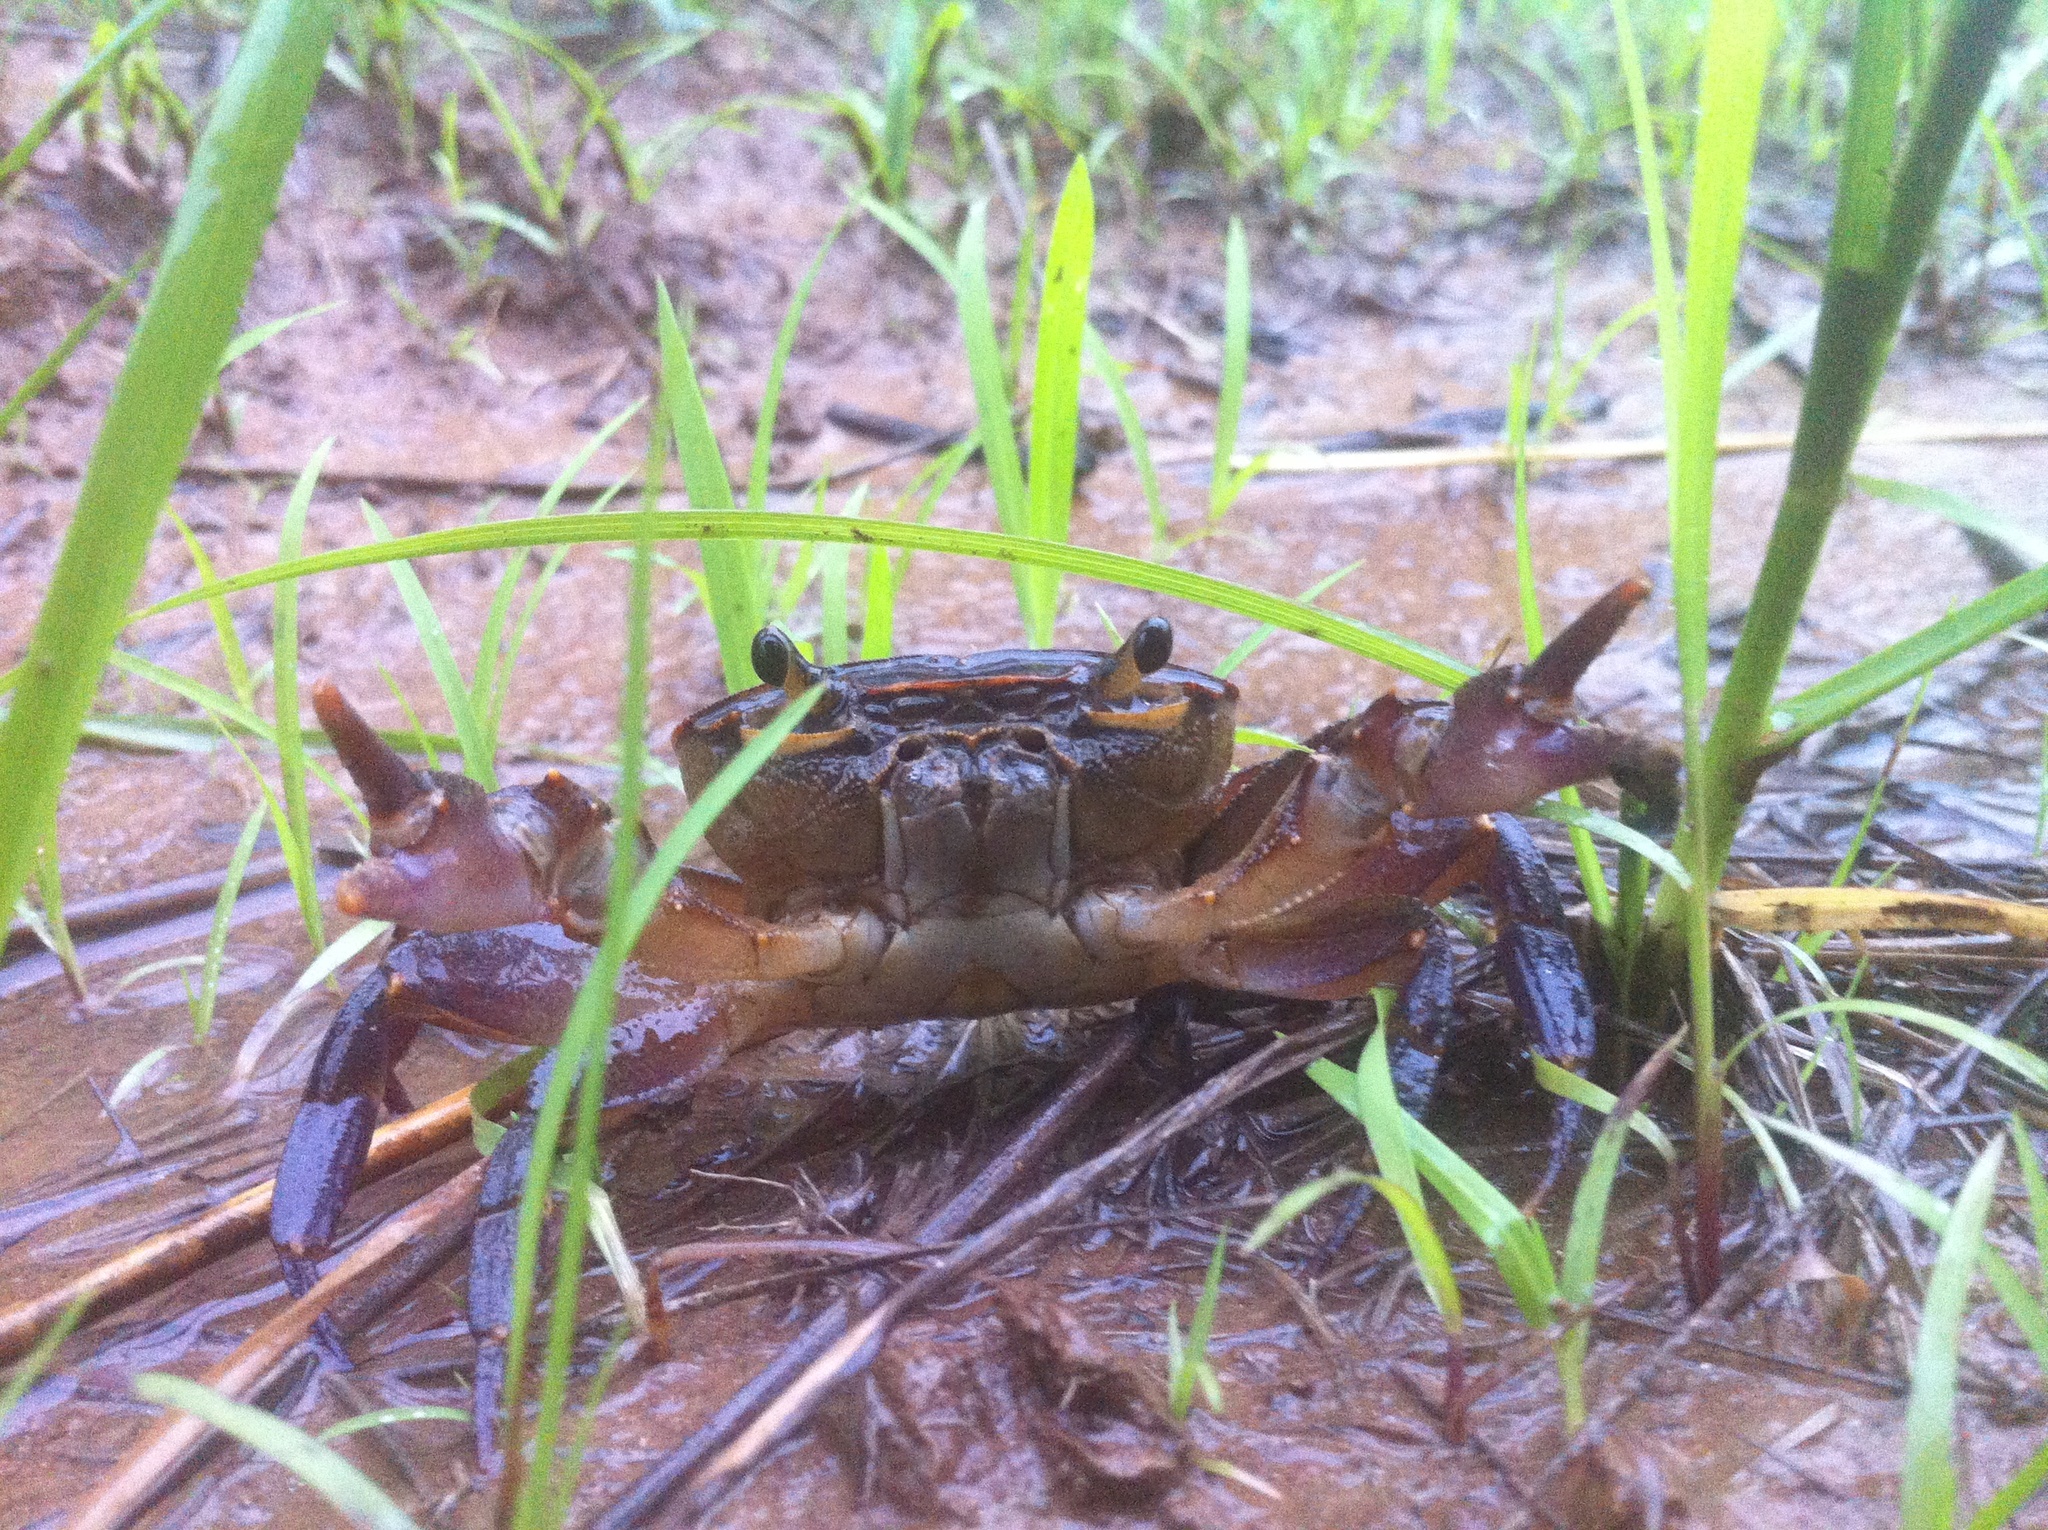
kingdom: Animalia
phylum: Arthropoda
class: Malacostraca
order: Decapoda
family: Potamonautidae
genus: Potamonautes
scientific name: Potamonautes sidneyi
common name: Natal river crab
